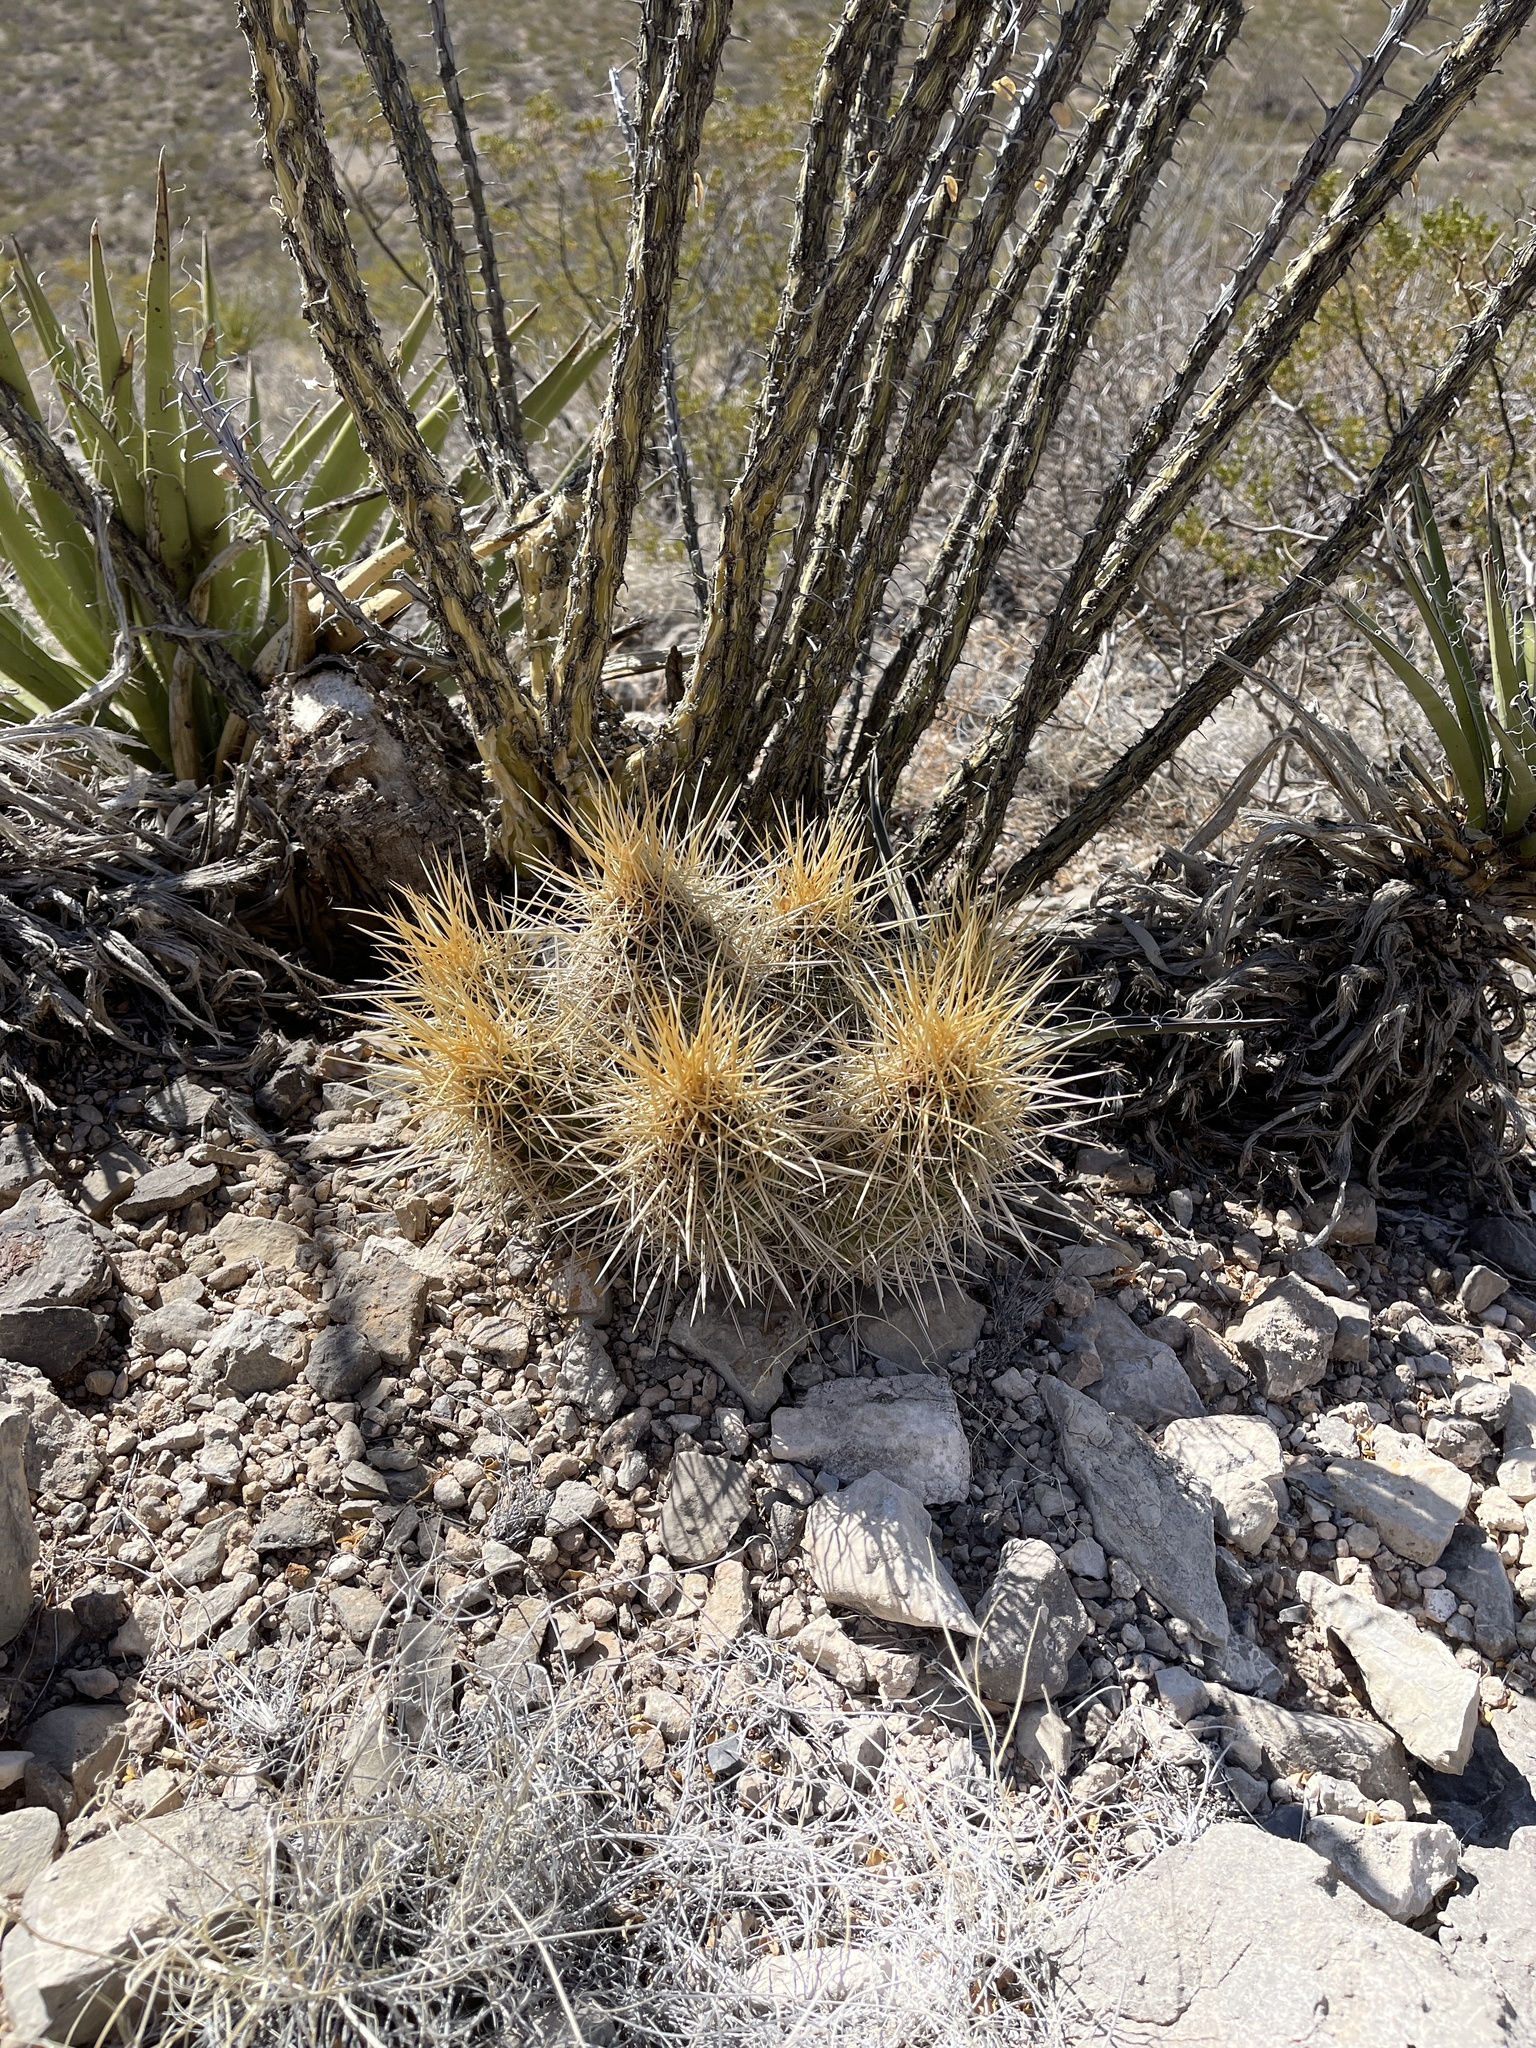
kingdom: Plantae
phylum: Tracheophyta
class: Magnoliopsida
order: Caryophyllales
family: Cactaceae
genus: Echinocereus
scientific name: Echinocereus stramineus
